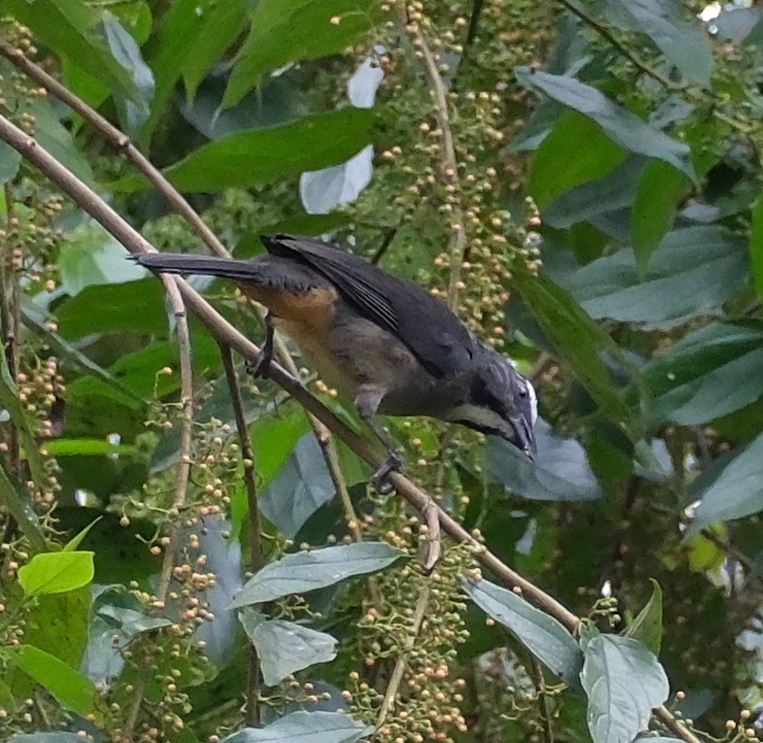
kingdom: Animalia
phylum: Chordata
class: Aves
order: Passeriformes
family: Thraupidae
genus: Saltator
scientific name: Saltator coerulescens
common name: Grayish saltator
